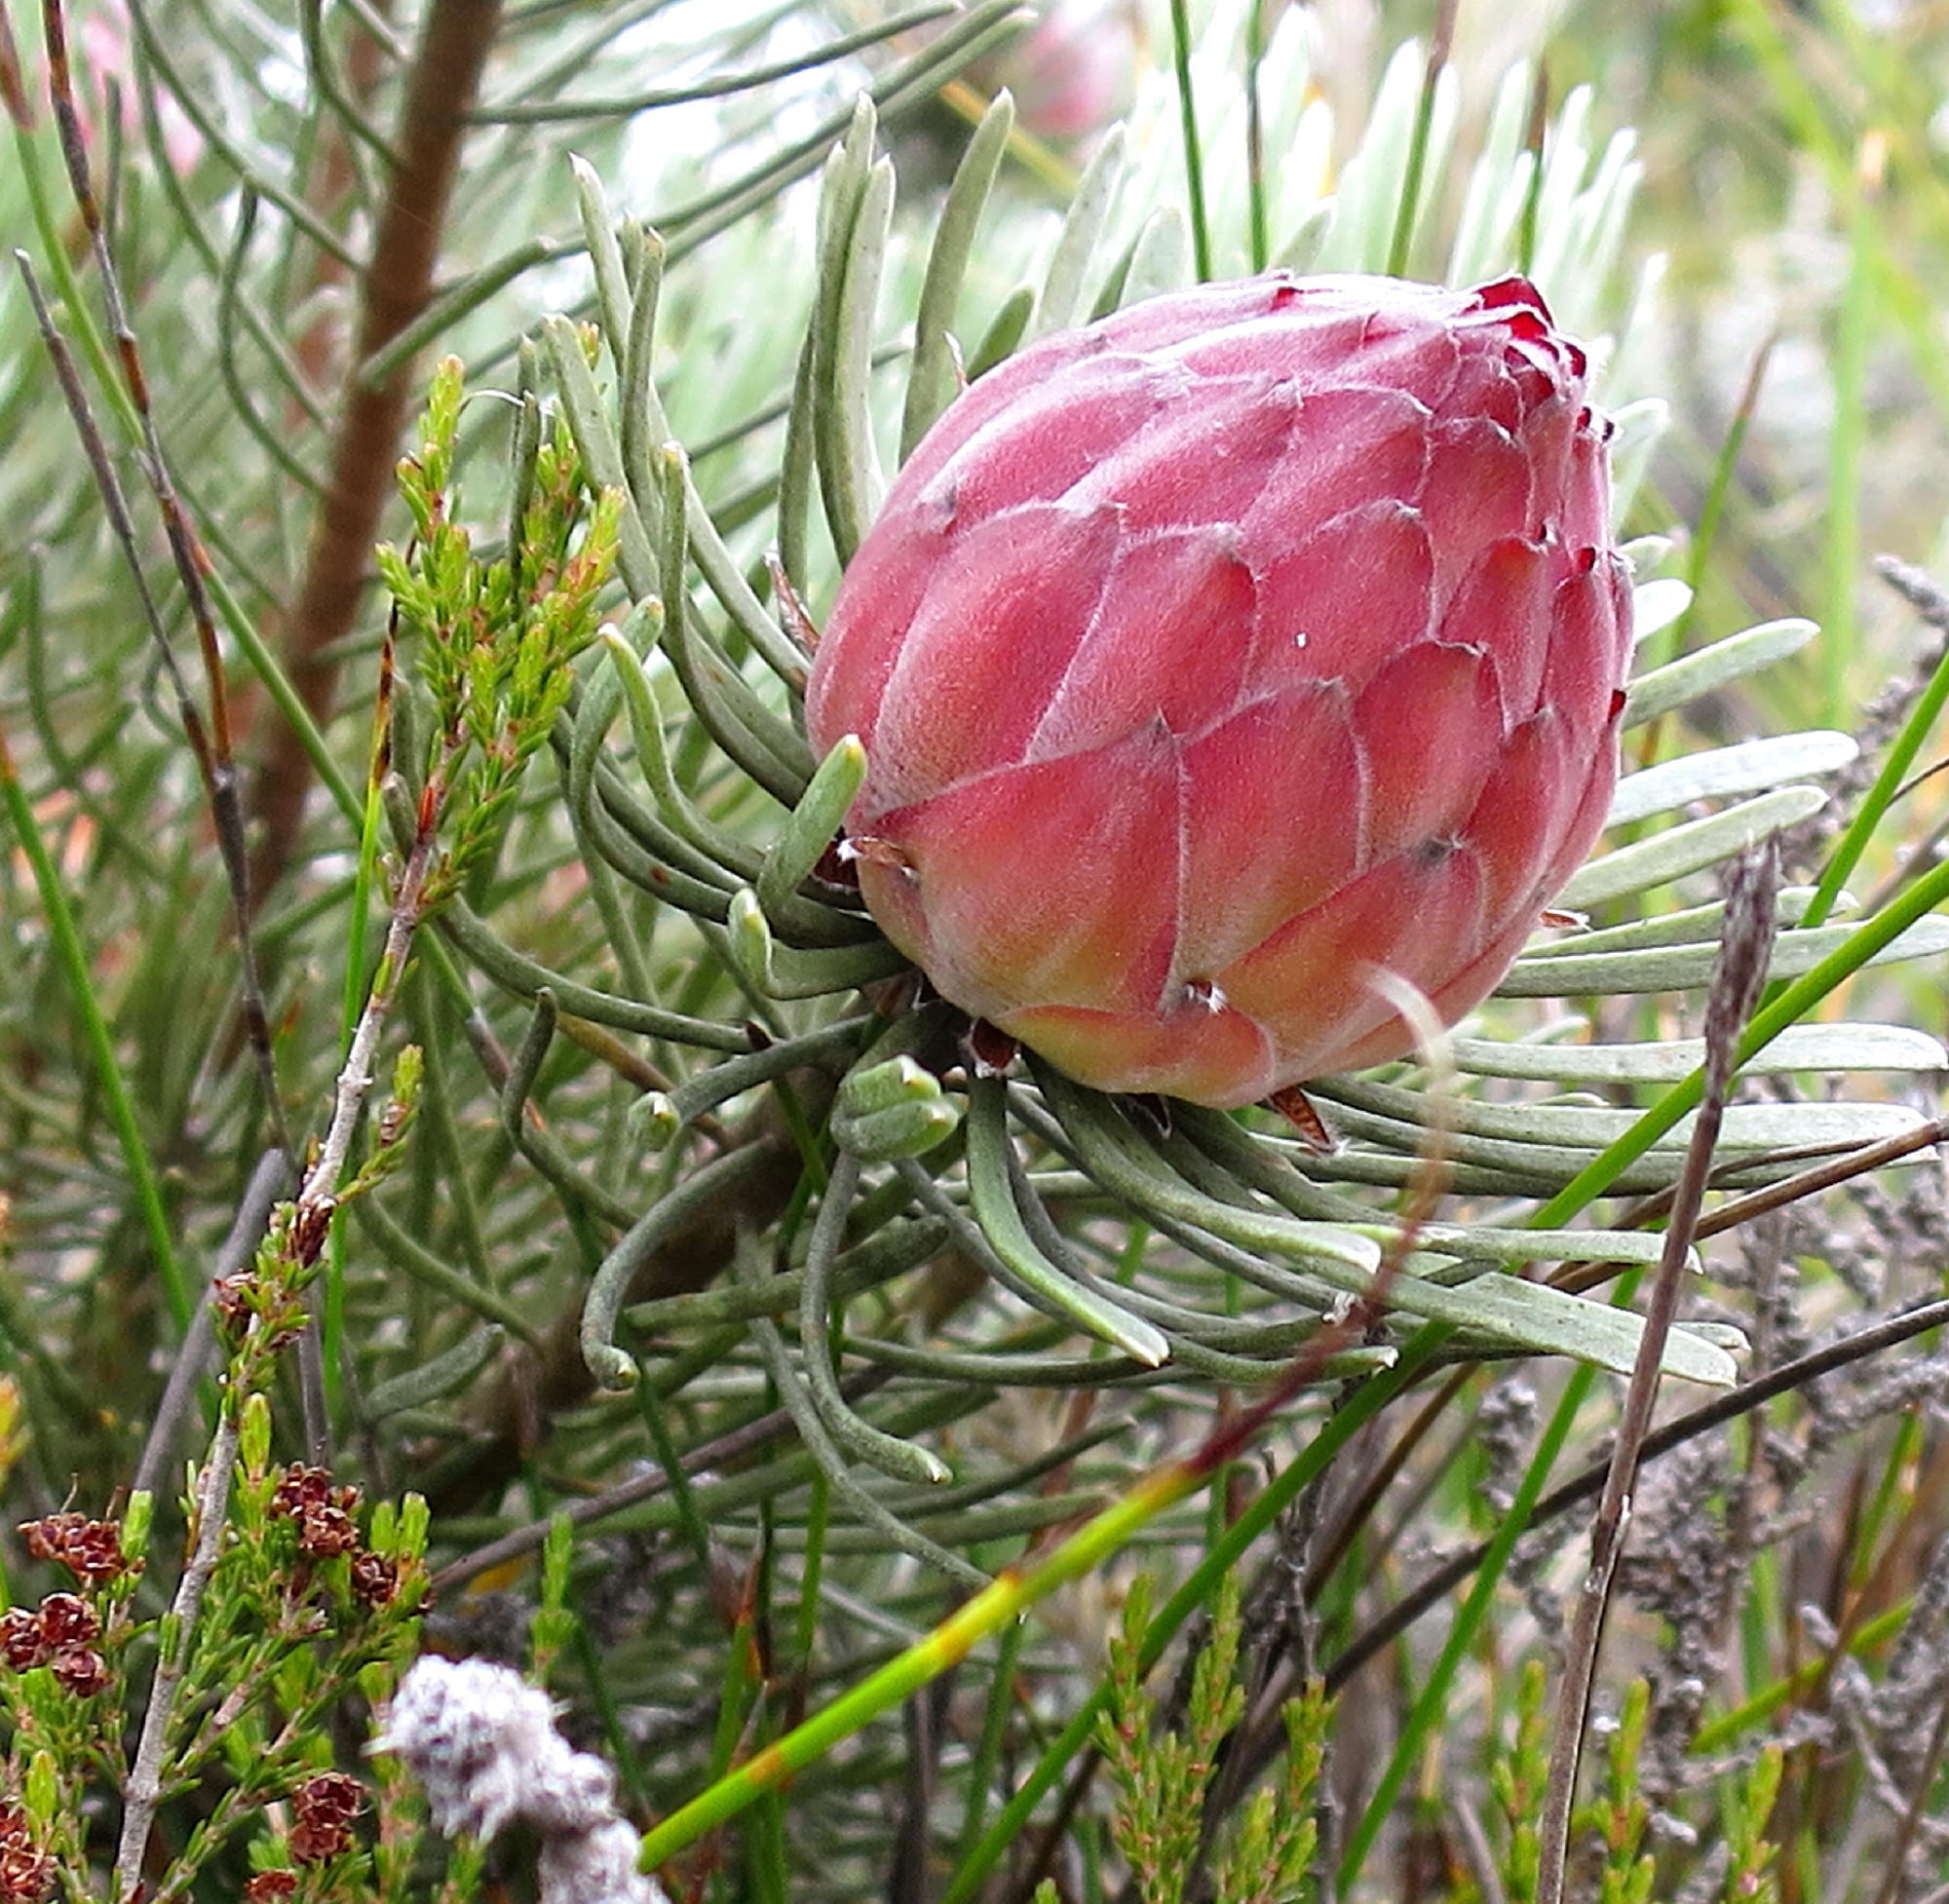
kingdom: Plantae
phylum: Tracheophyta
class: Magnoliopsida
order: Proteales
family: Proteaceae
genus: Leucadendron
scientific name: Leucadendron album
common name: Linear-leaf conebush
